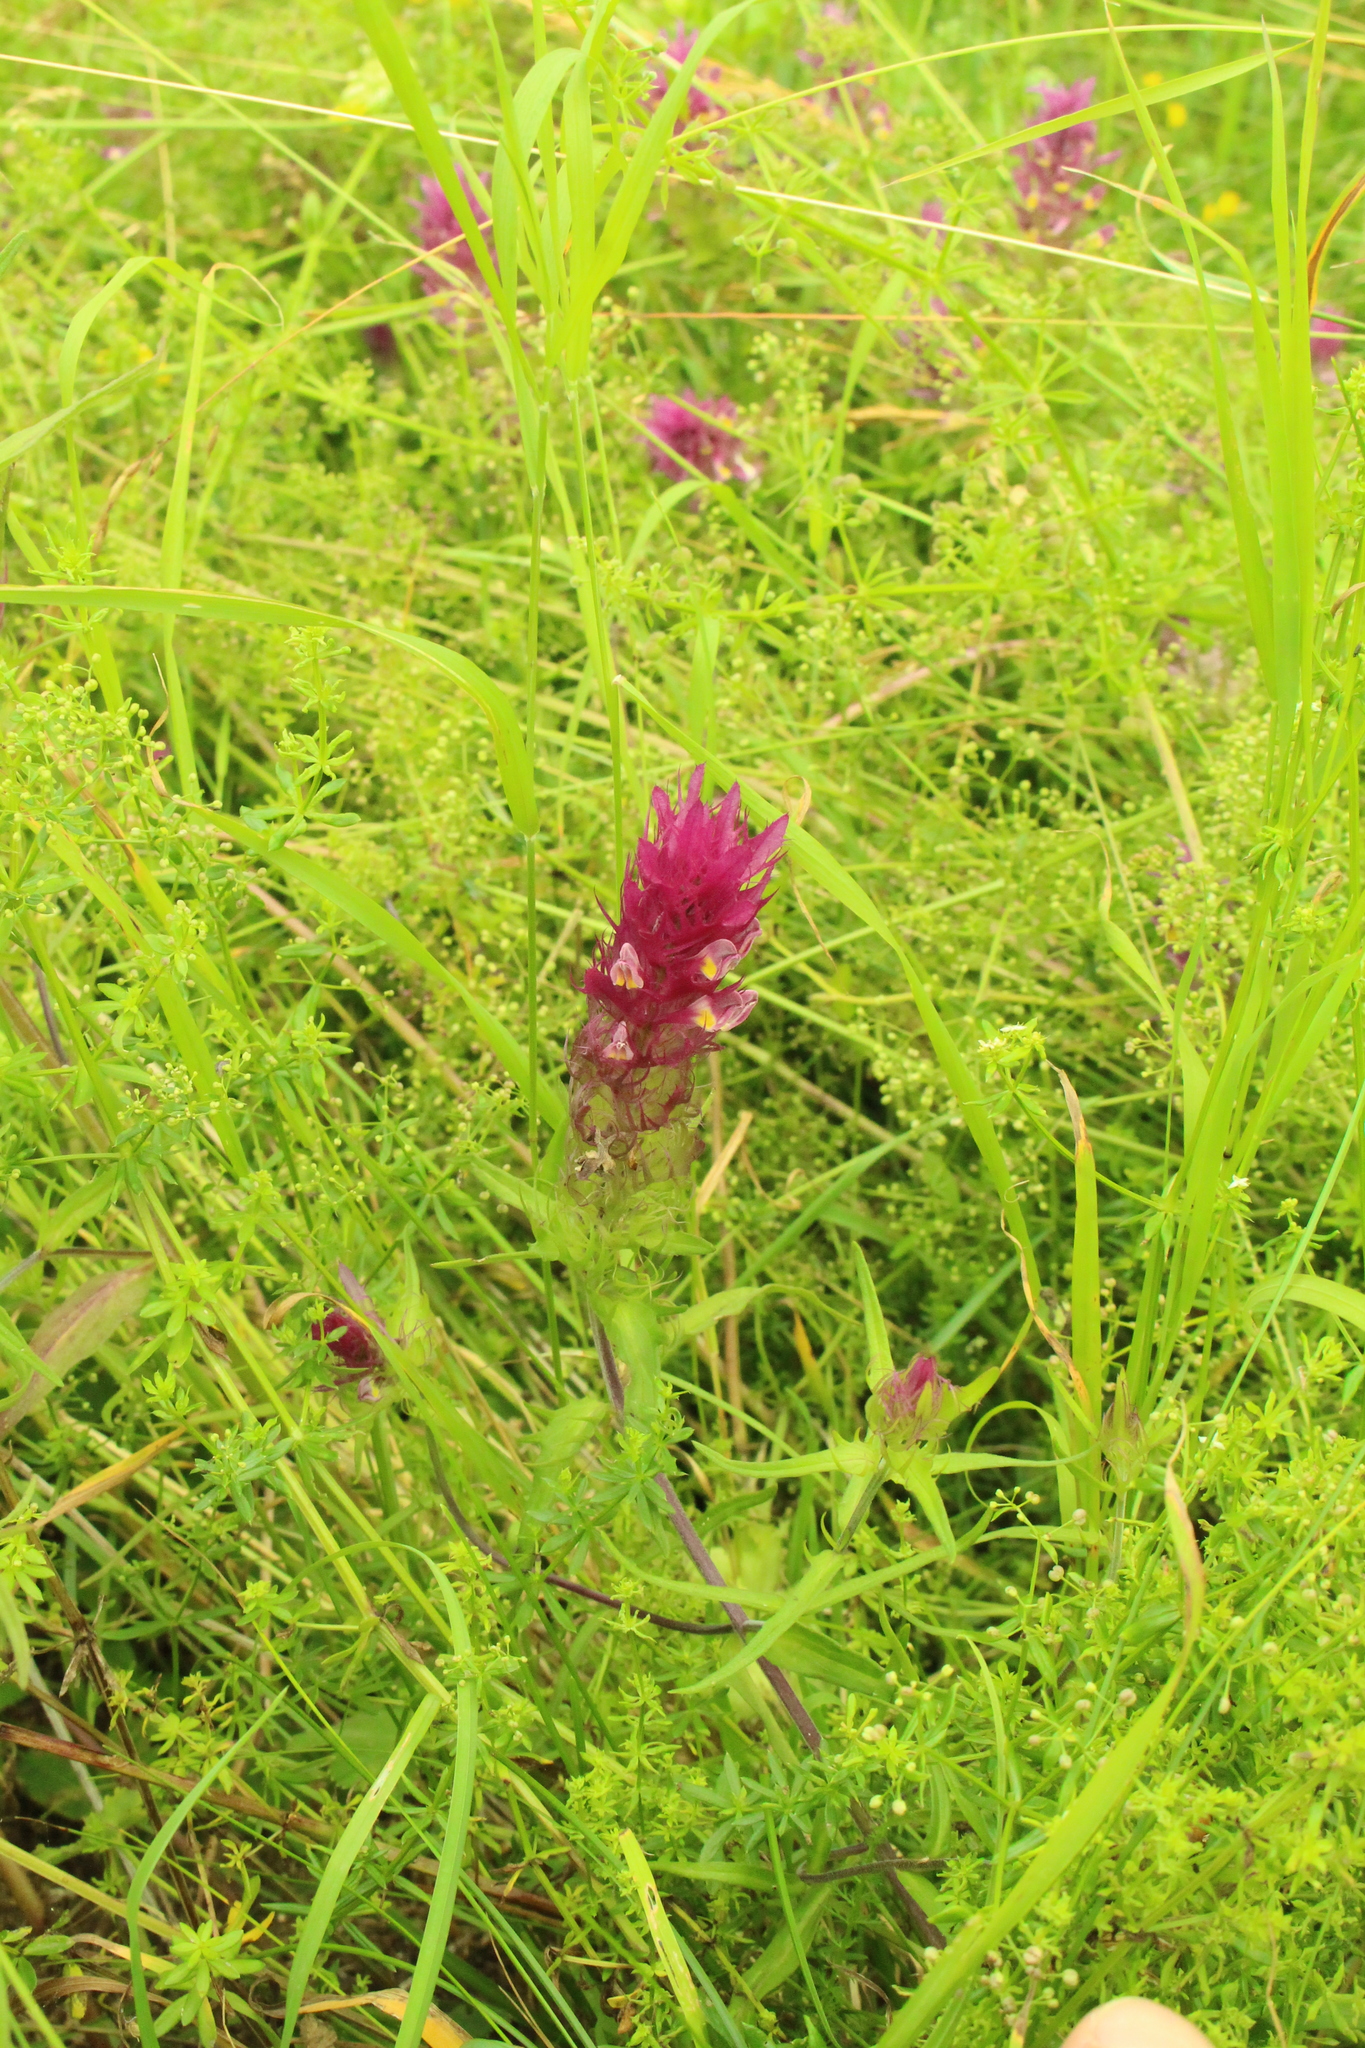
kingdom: Plantae
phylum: Tracheophyta
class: Magnoliopsida
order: Lamiales
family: Orobanchaceae
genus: Melampyrum
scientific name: Melampyrum arvense
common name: Field cow-wheat
